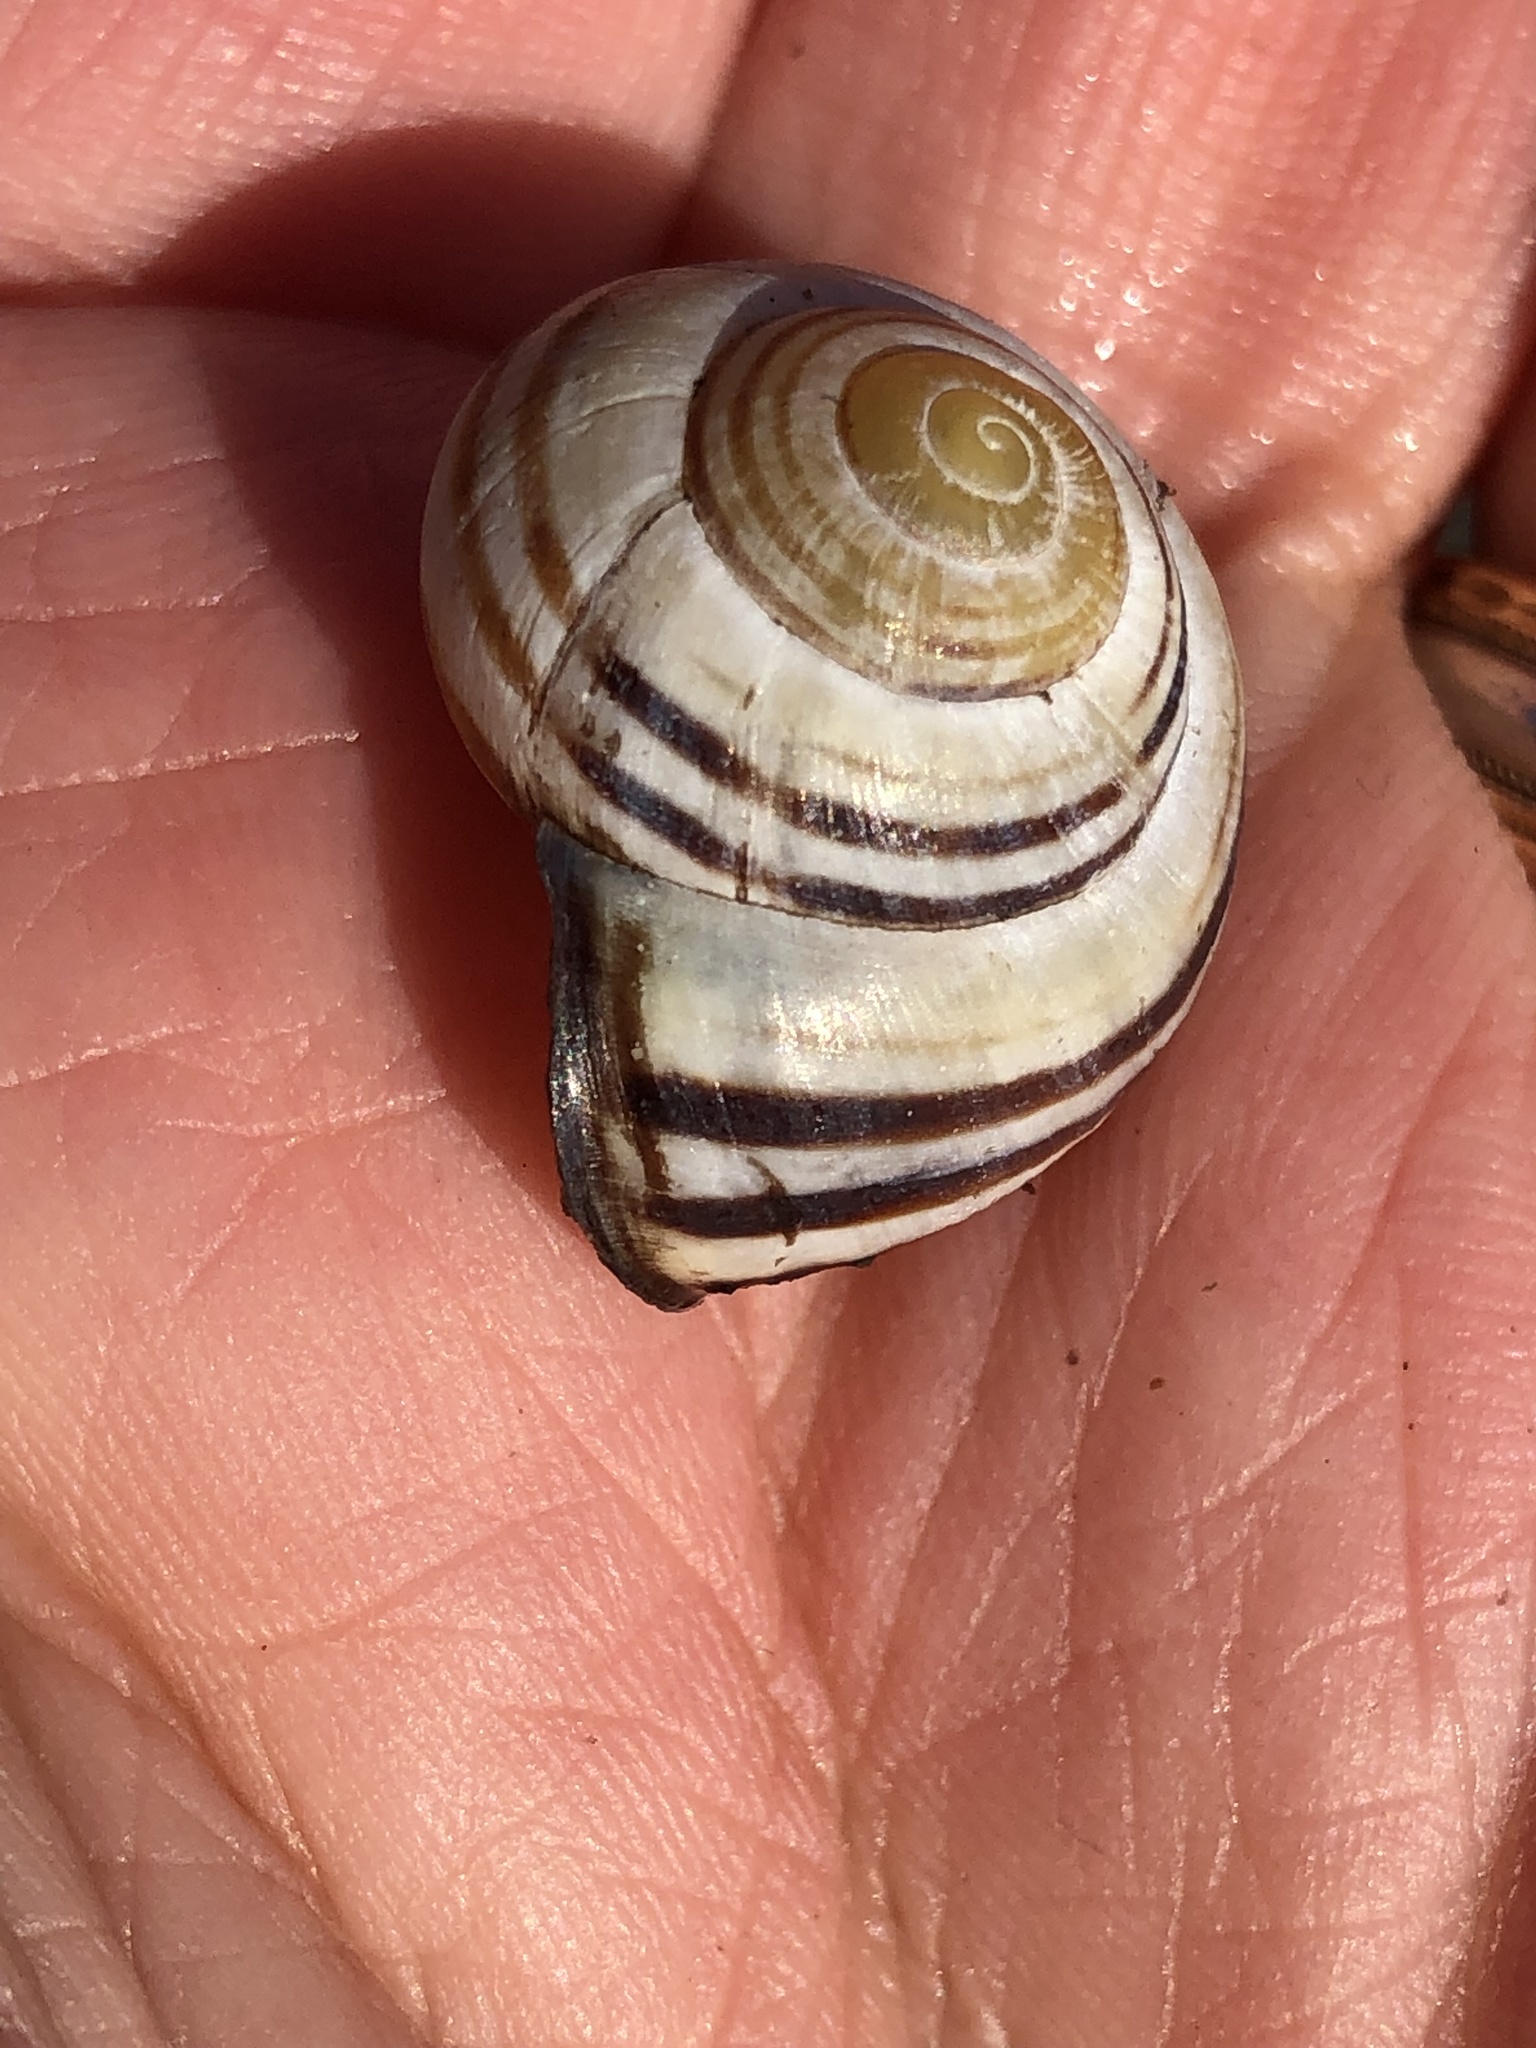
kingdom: Animalia
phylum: Mollusca
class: Gastropoda
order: Stylommatophora
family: Helicidae
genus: Cepaea
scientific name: Cepaea nemoralis
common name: Grovesnail
